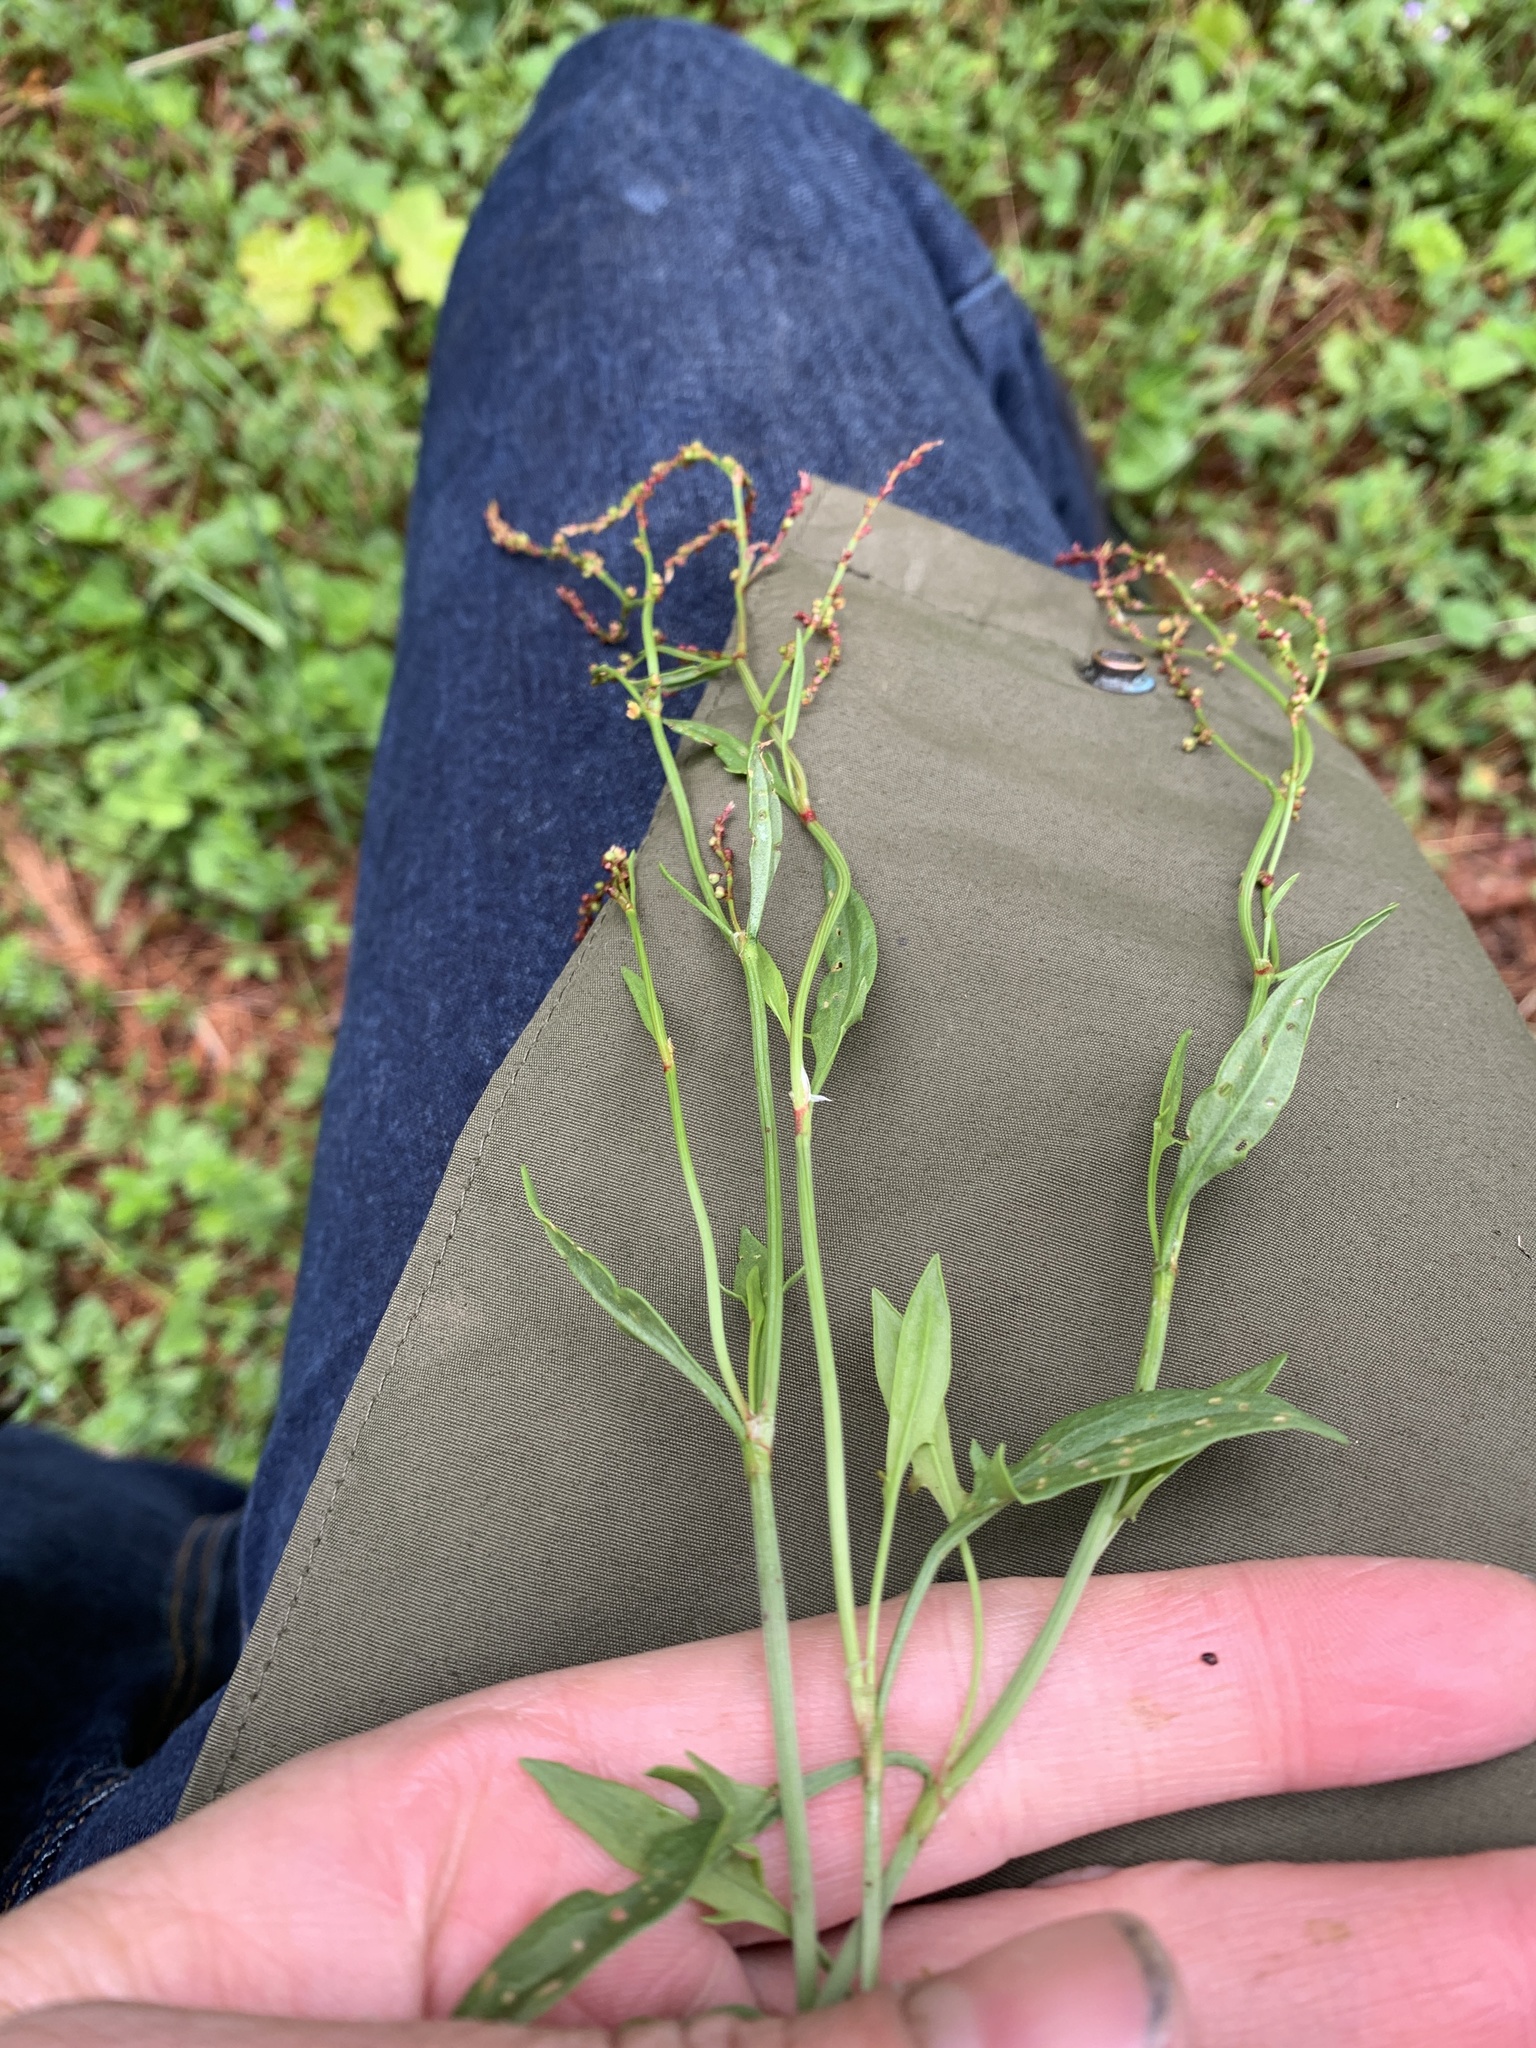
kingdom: Plantae
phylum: Tracheophyta
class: Magnoliopsida
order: Caryophyllales
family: Polygonaceae
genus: Rumex
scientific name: Rumex acetosella
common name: Common sheep sorrel
